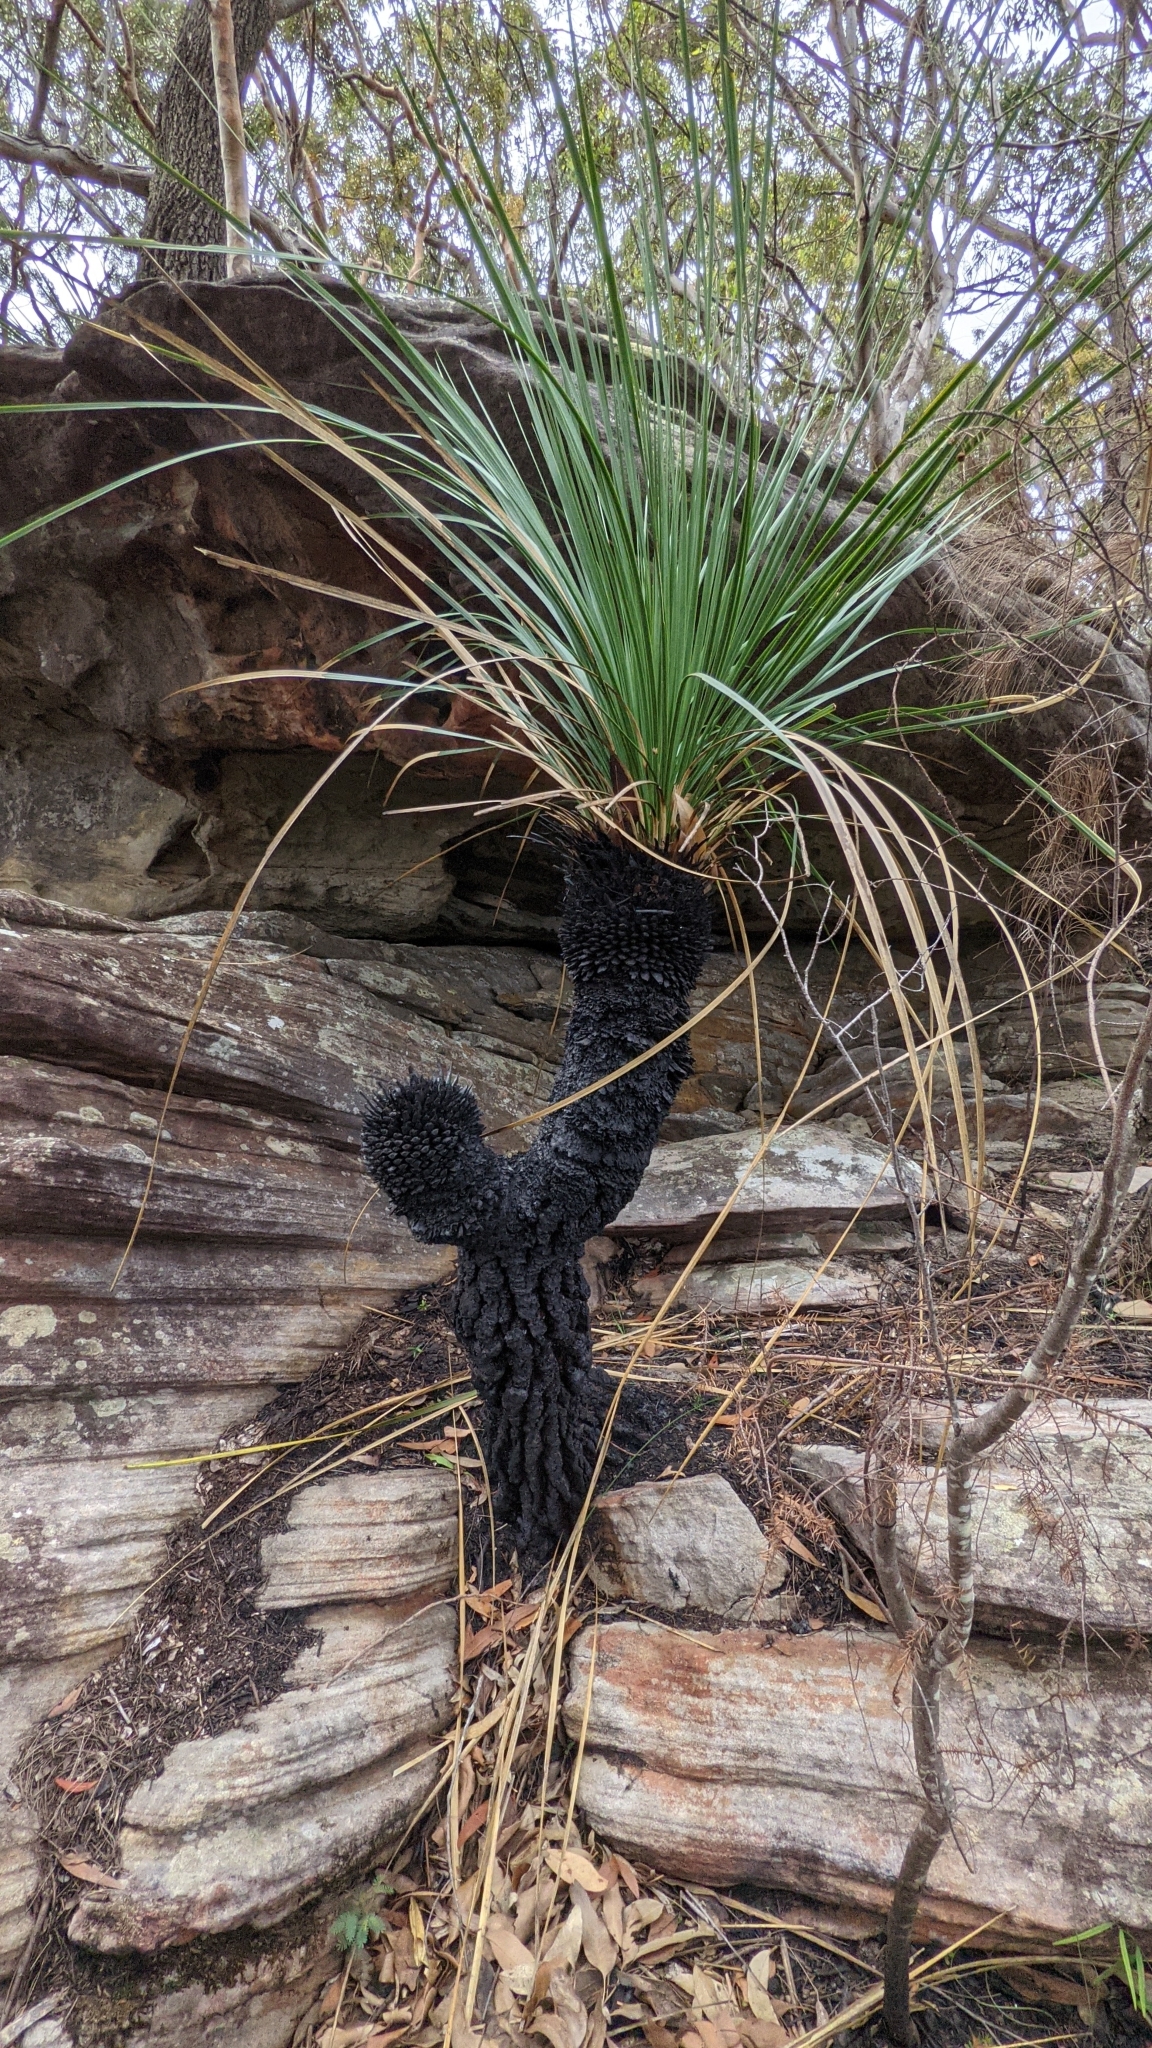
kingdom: Plantae
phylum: Tracheophyta
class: Liliopsida
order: Asparagales
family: Asphodelaceae
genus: Xanthorrhoea
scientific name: Xanthorrhoea arborea
